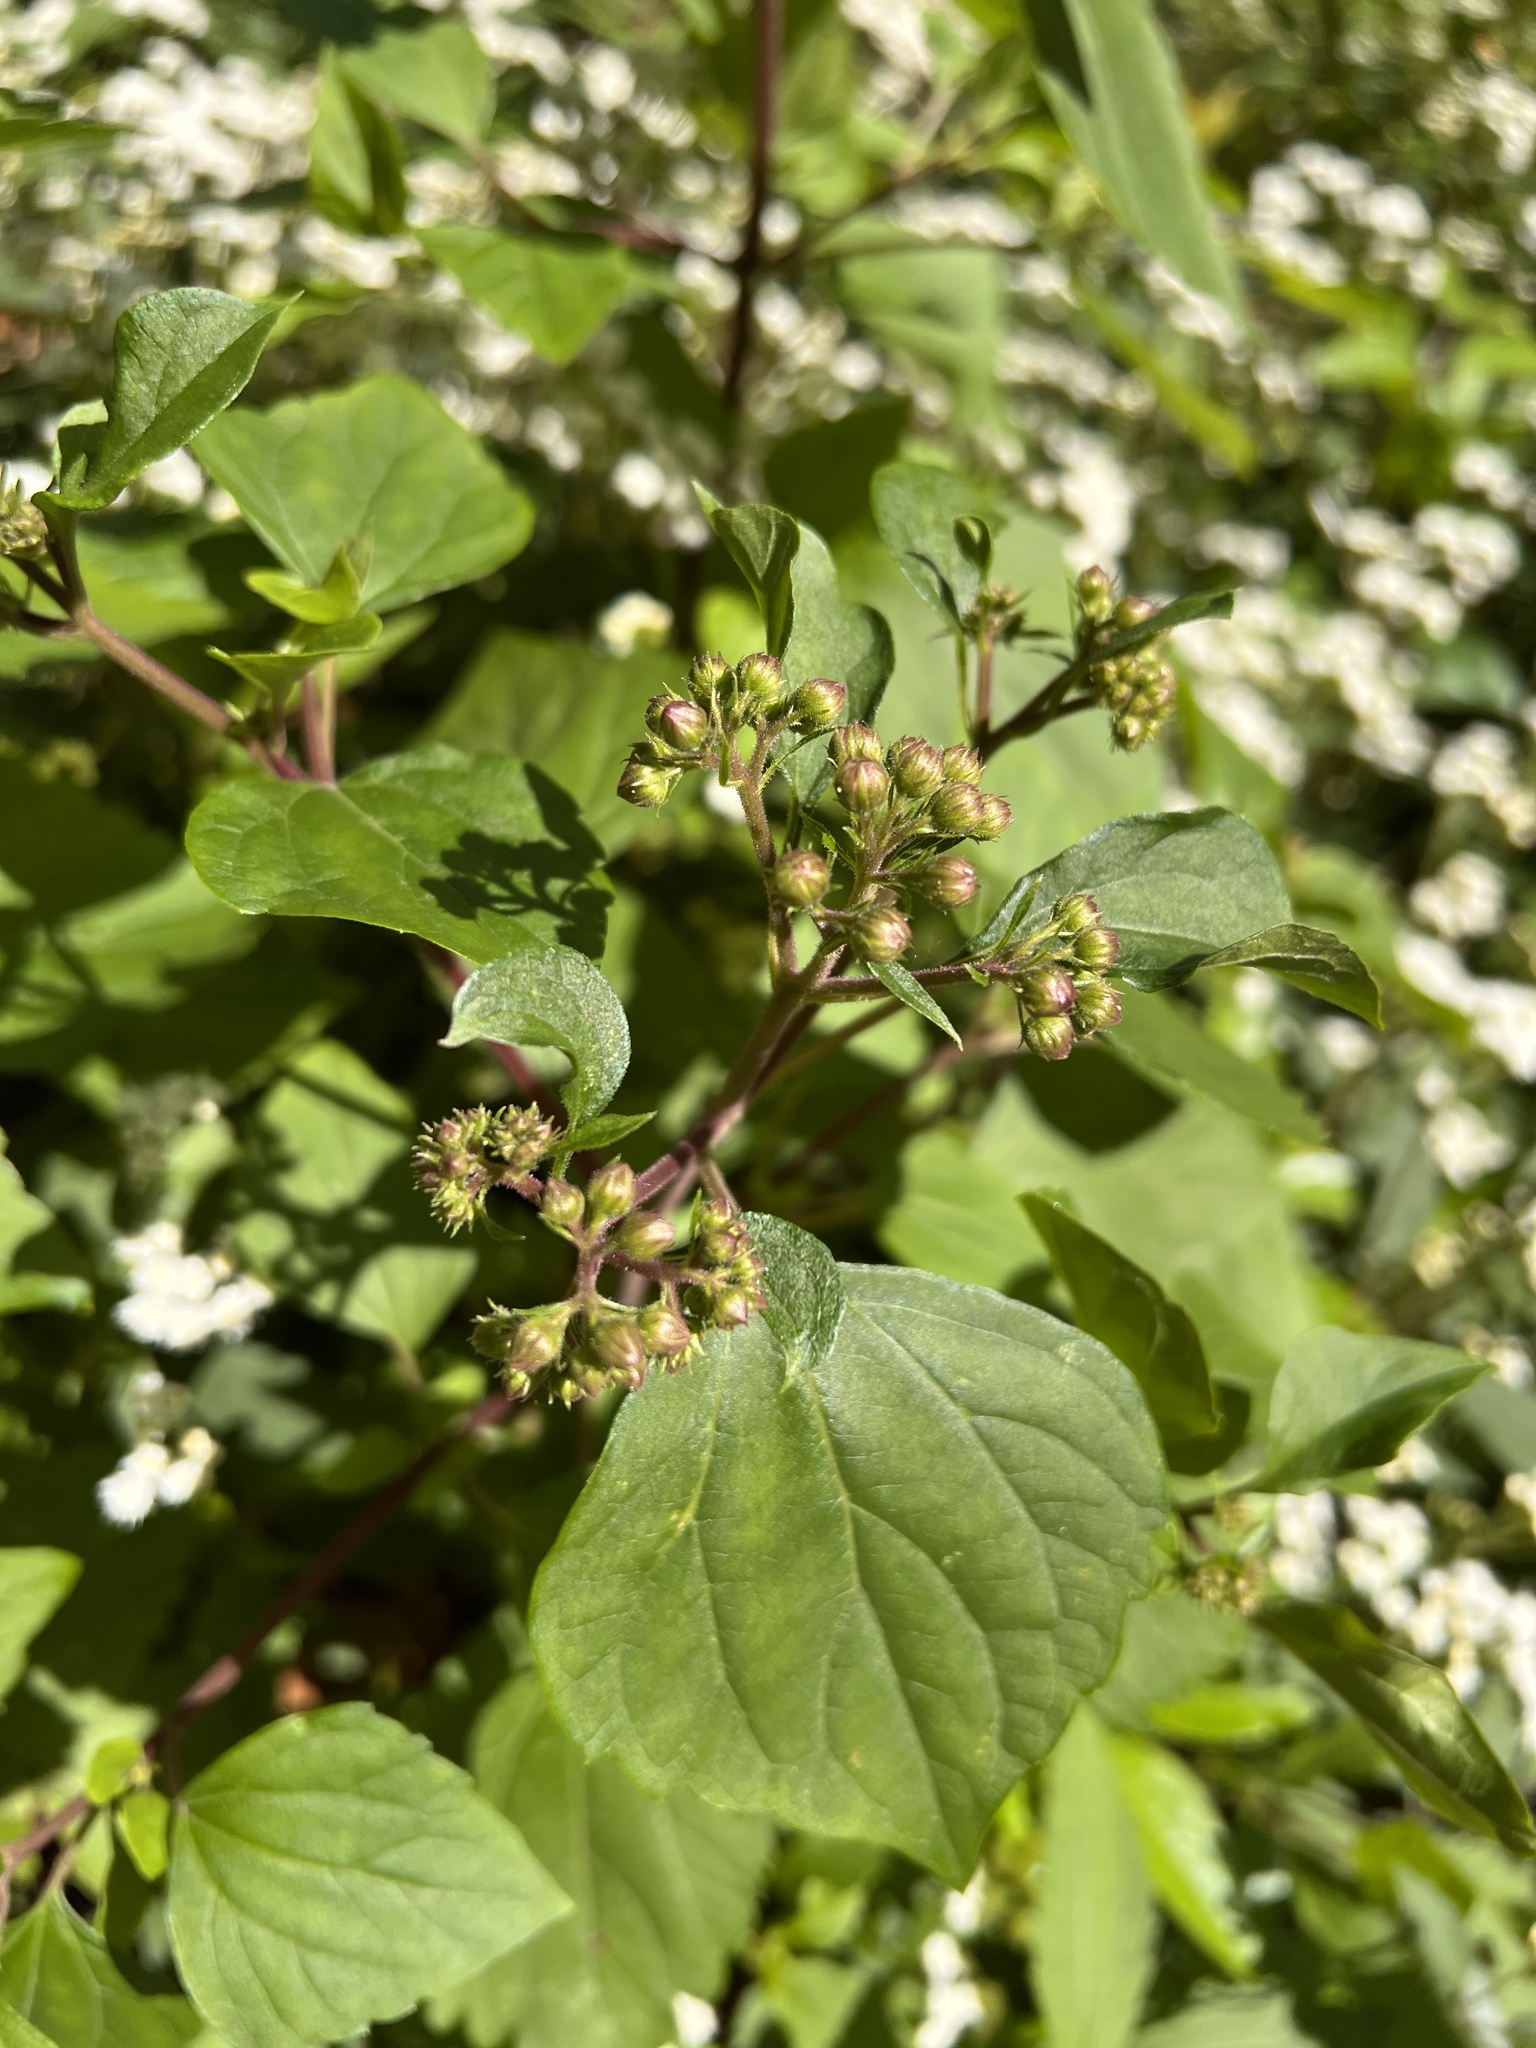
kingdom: Plantae
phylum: Tracheophyta
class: Magnoliopsida
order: Asterales
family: Asteraceae
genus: Ageratina
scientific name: Ageratina adenophora
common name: Sticky snakeroot
